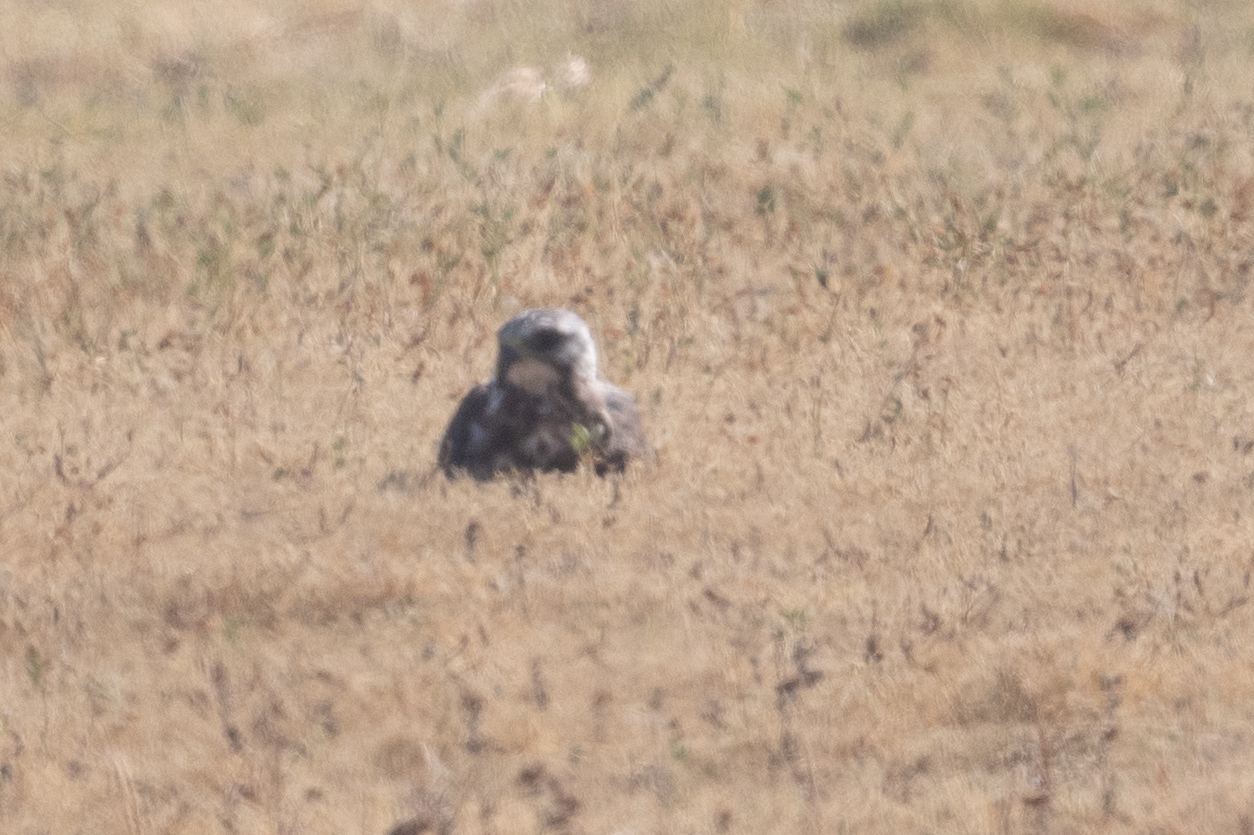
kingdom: Animalia
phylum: Chordata
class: Aves
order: Accipitriformes
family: Accipitridae
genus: Buteo
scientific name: Buteo swainsoni
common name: Swainson's hawk
